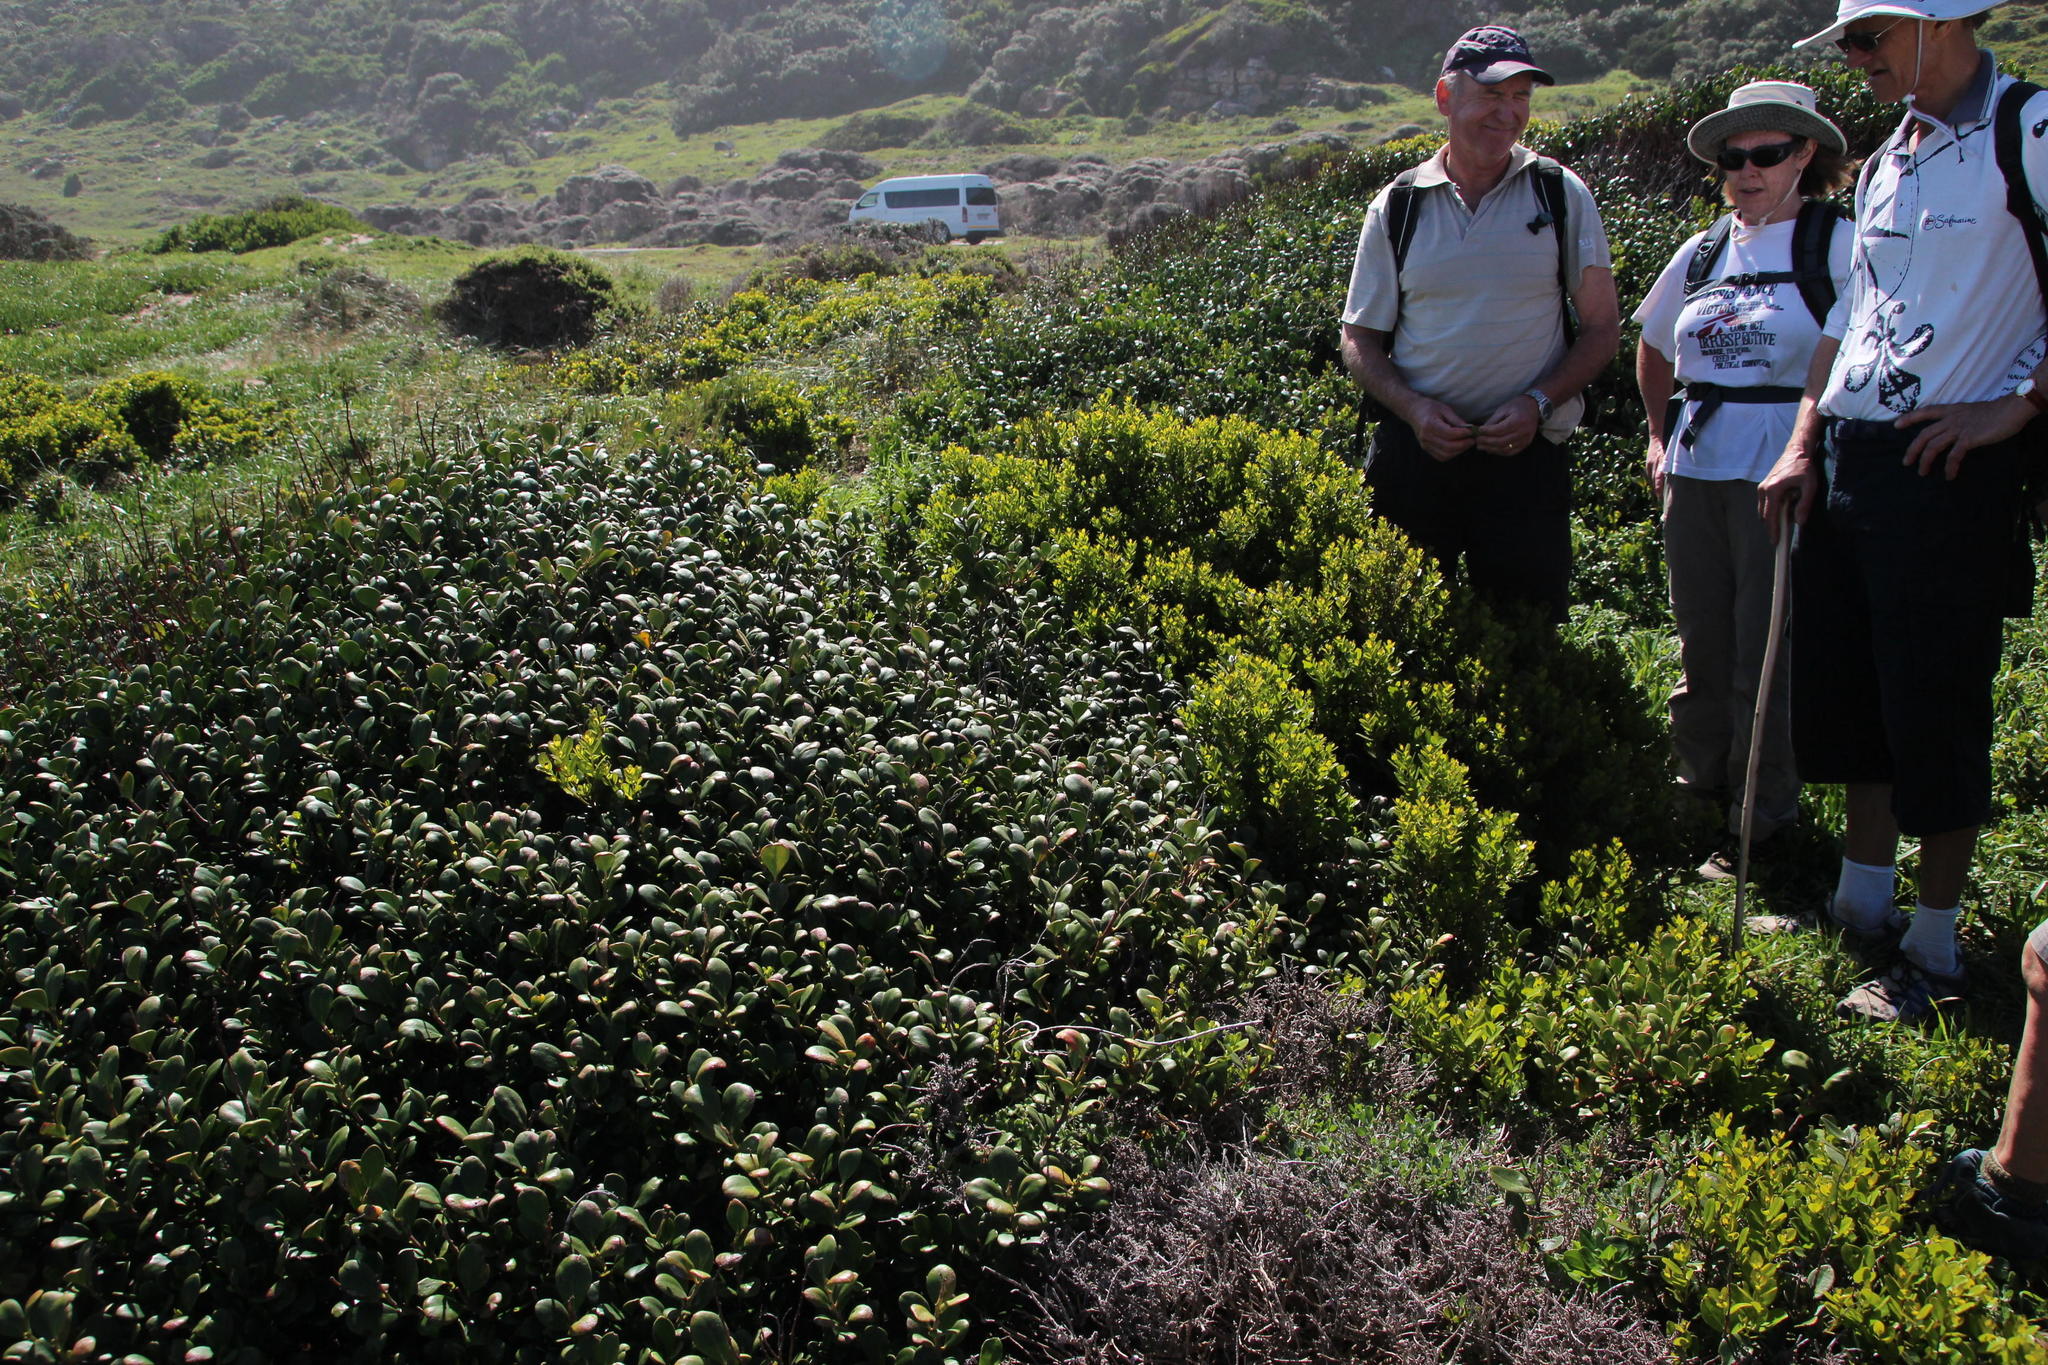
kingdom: Plantae
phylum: Tracheophyta
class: Magnoliopsida
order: Celastrales
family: Celastraceae
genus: Pterocelastrus
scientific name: Pterocelastrus tricuspidatus
